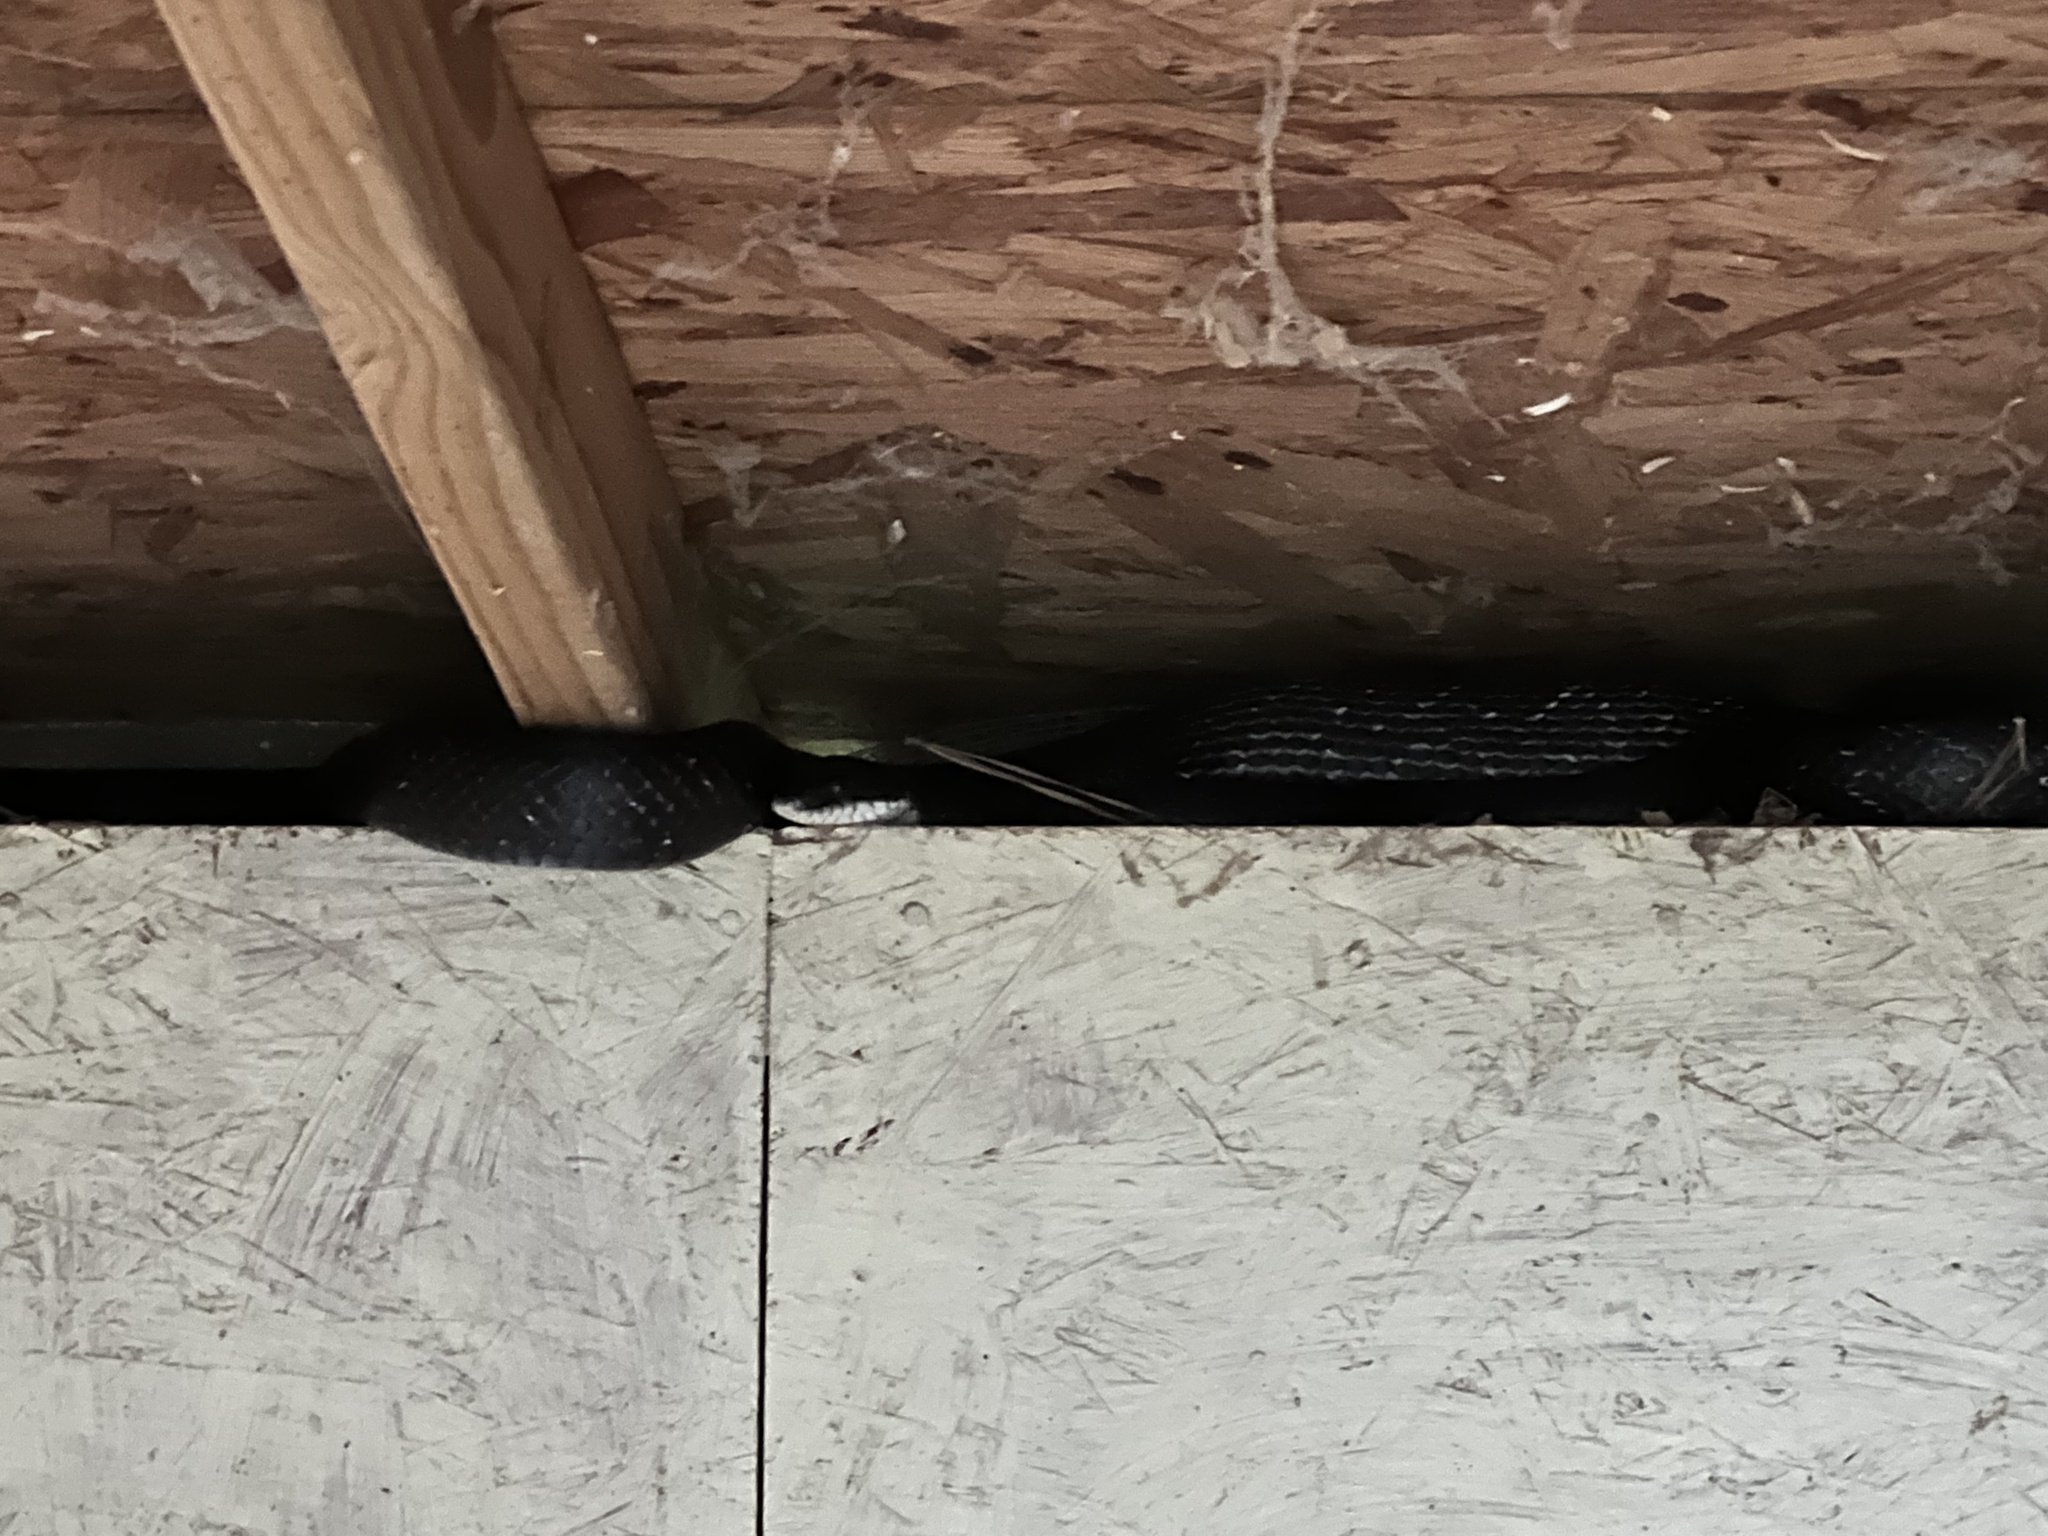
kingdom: Animalia
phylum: Chordata
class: Squamata
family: Colubridae
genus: Pantherophis
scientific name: Pantherophis alleghaniensis
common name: Eastern rat snake
